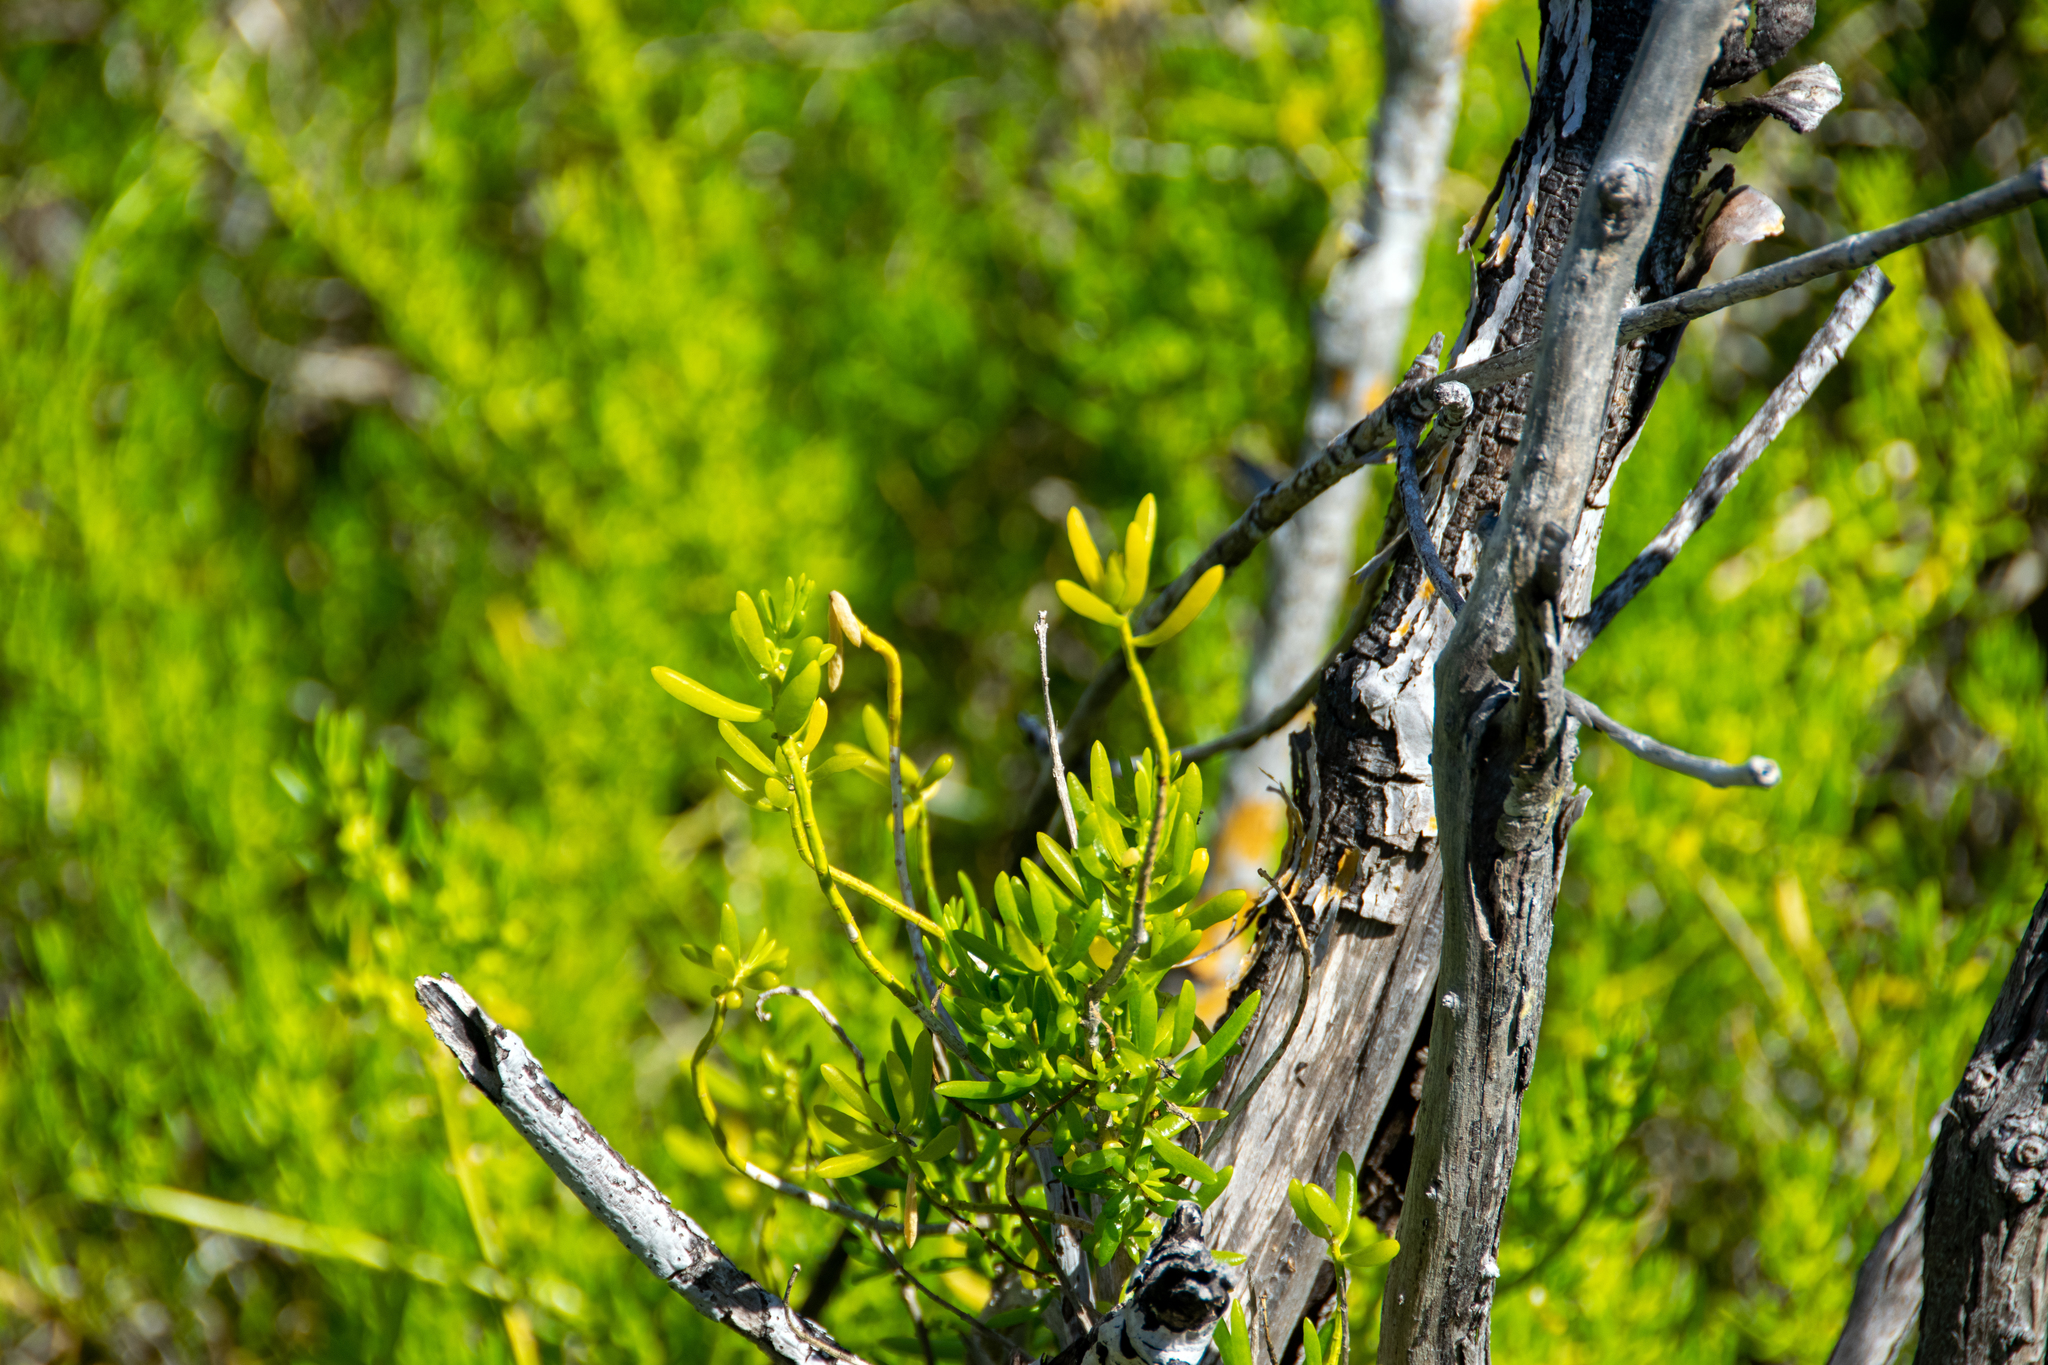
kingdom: Plantae
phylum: Tracheophyta
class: Magnoliopsida
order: Brassicales
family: Bataceae
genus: Batis
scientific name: Batis maritima
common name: Turtleweed
